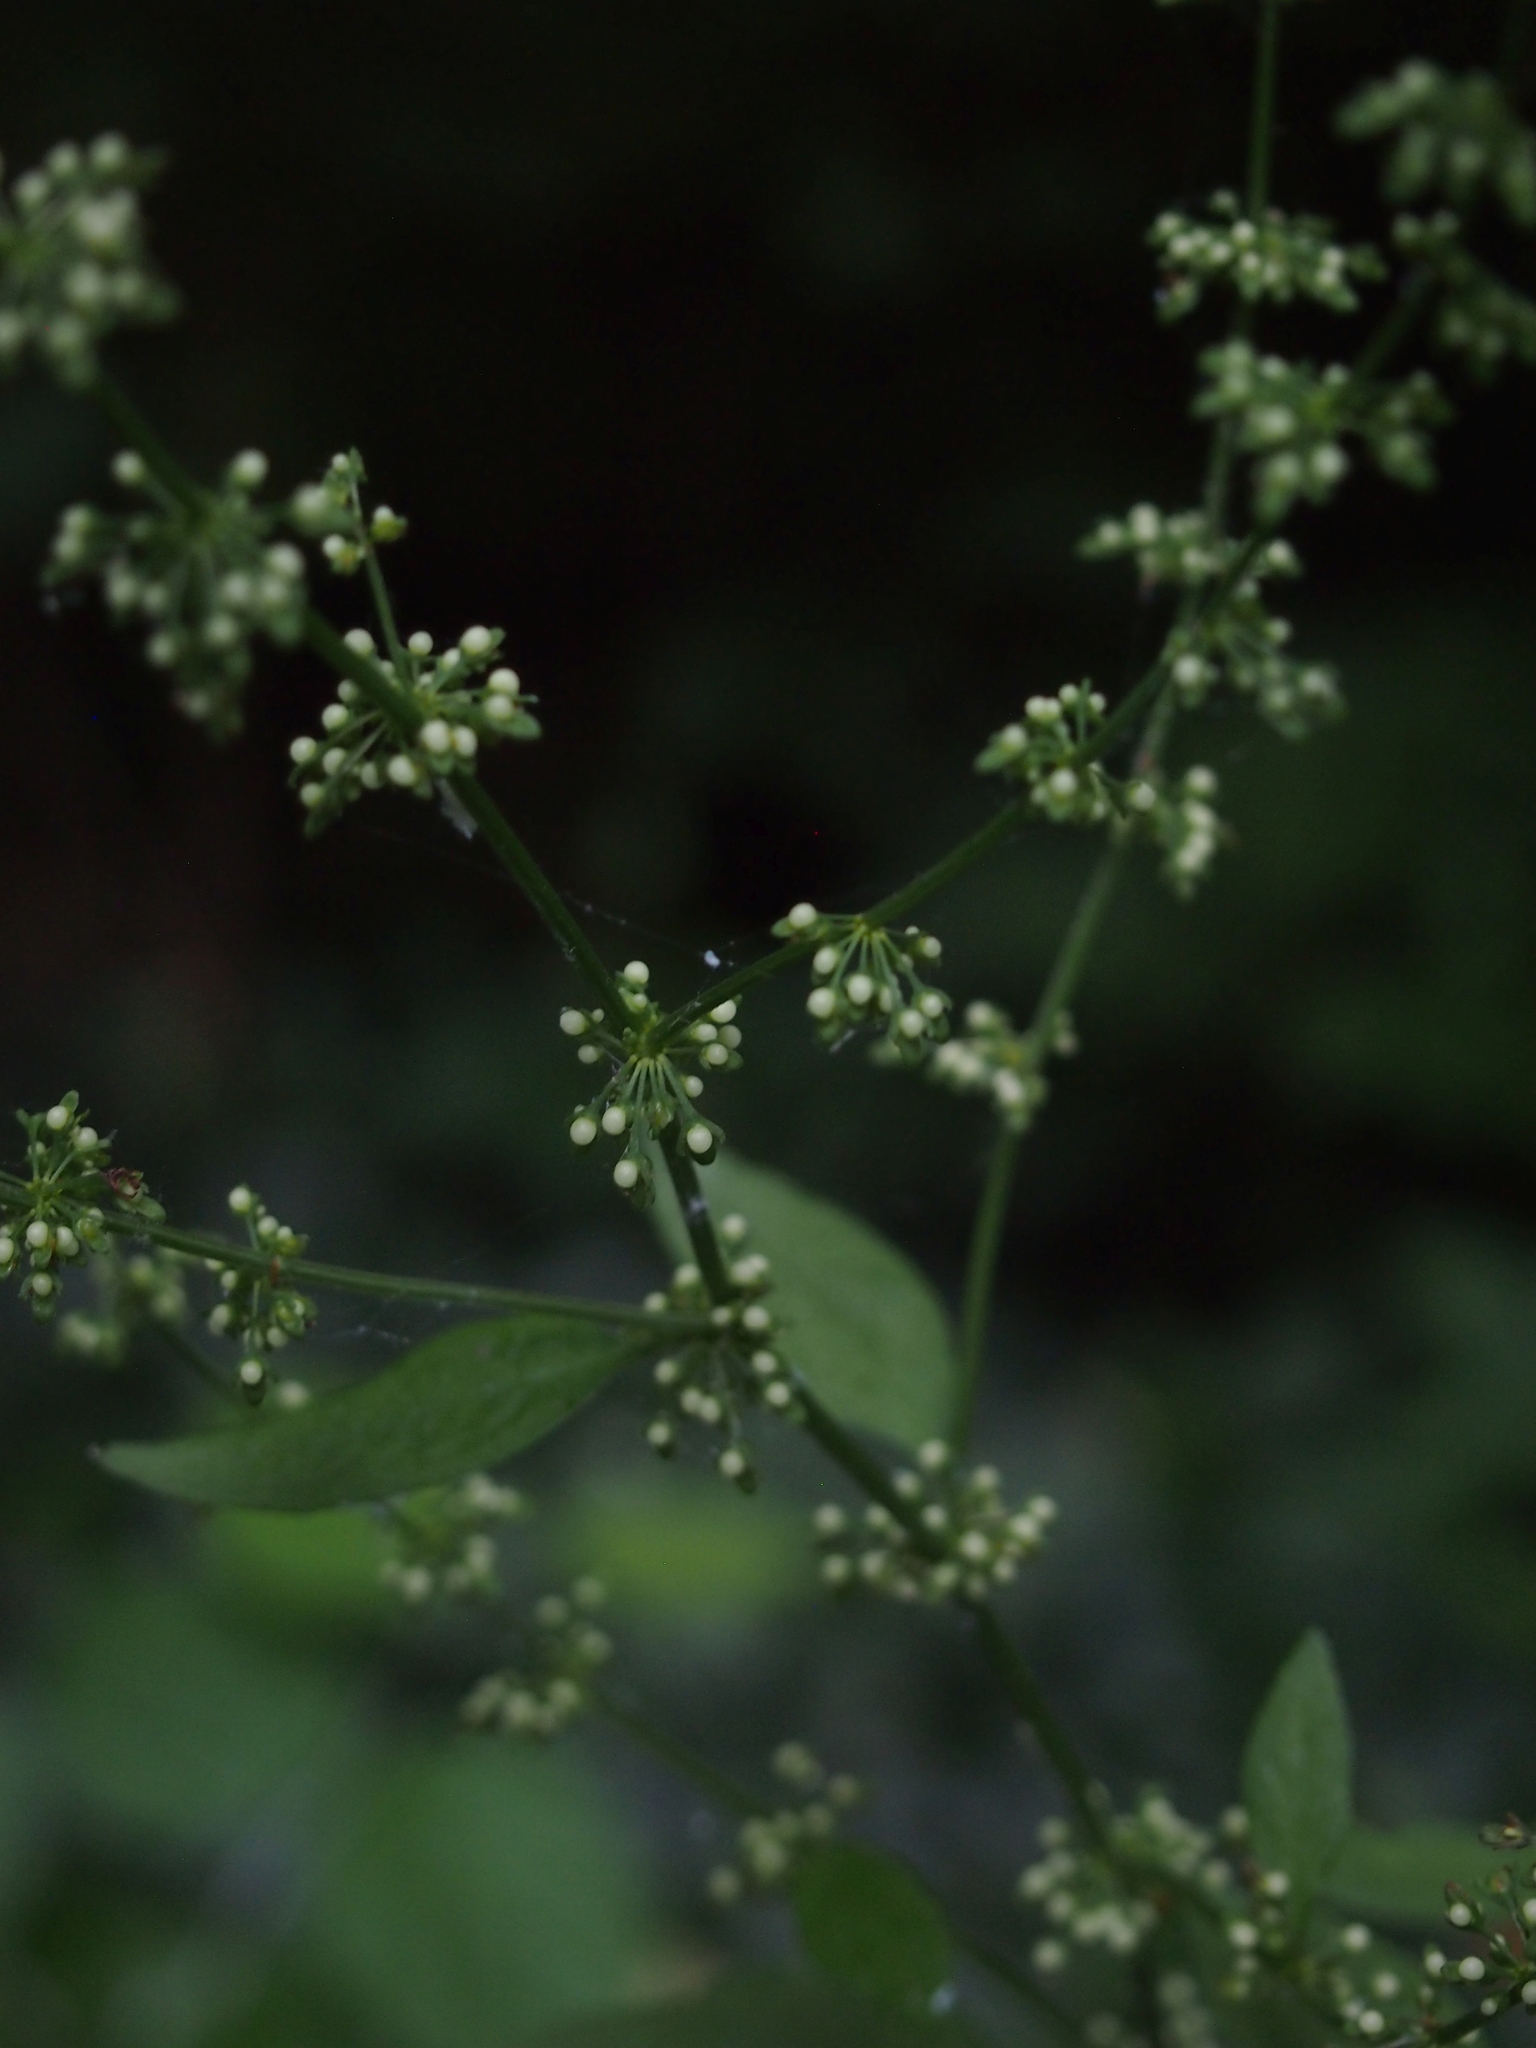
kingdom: Plantae
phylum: Tracheophyta
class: Magnoliopsida
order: Caryophyllales
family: Polygonaceae
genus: Rumex
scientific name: Rumex sanguineus
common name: Wood dock
